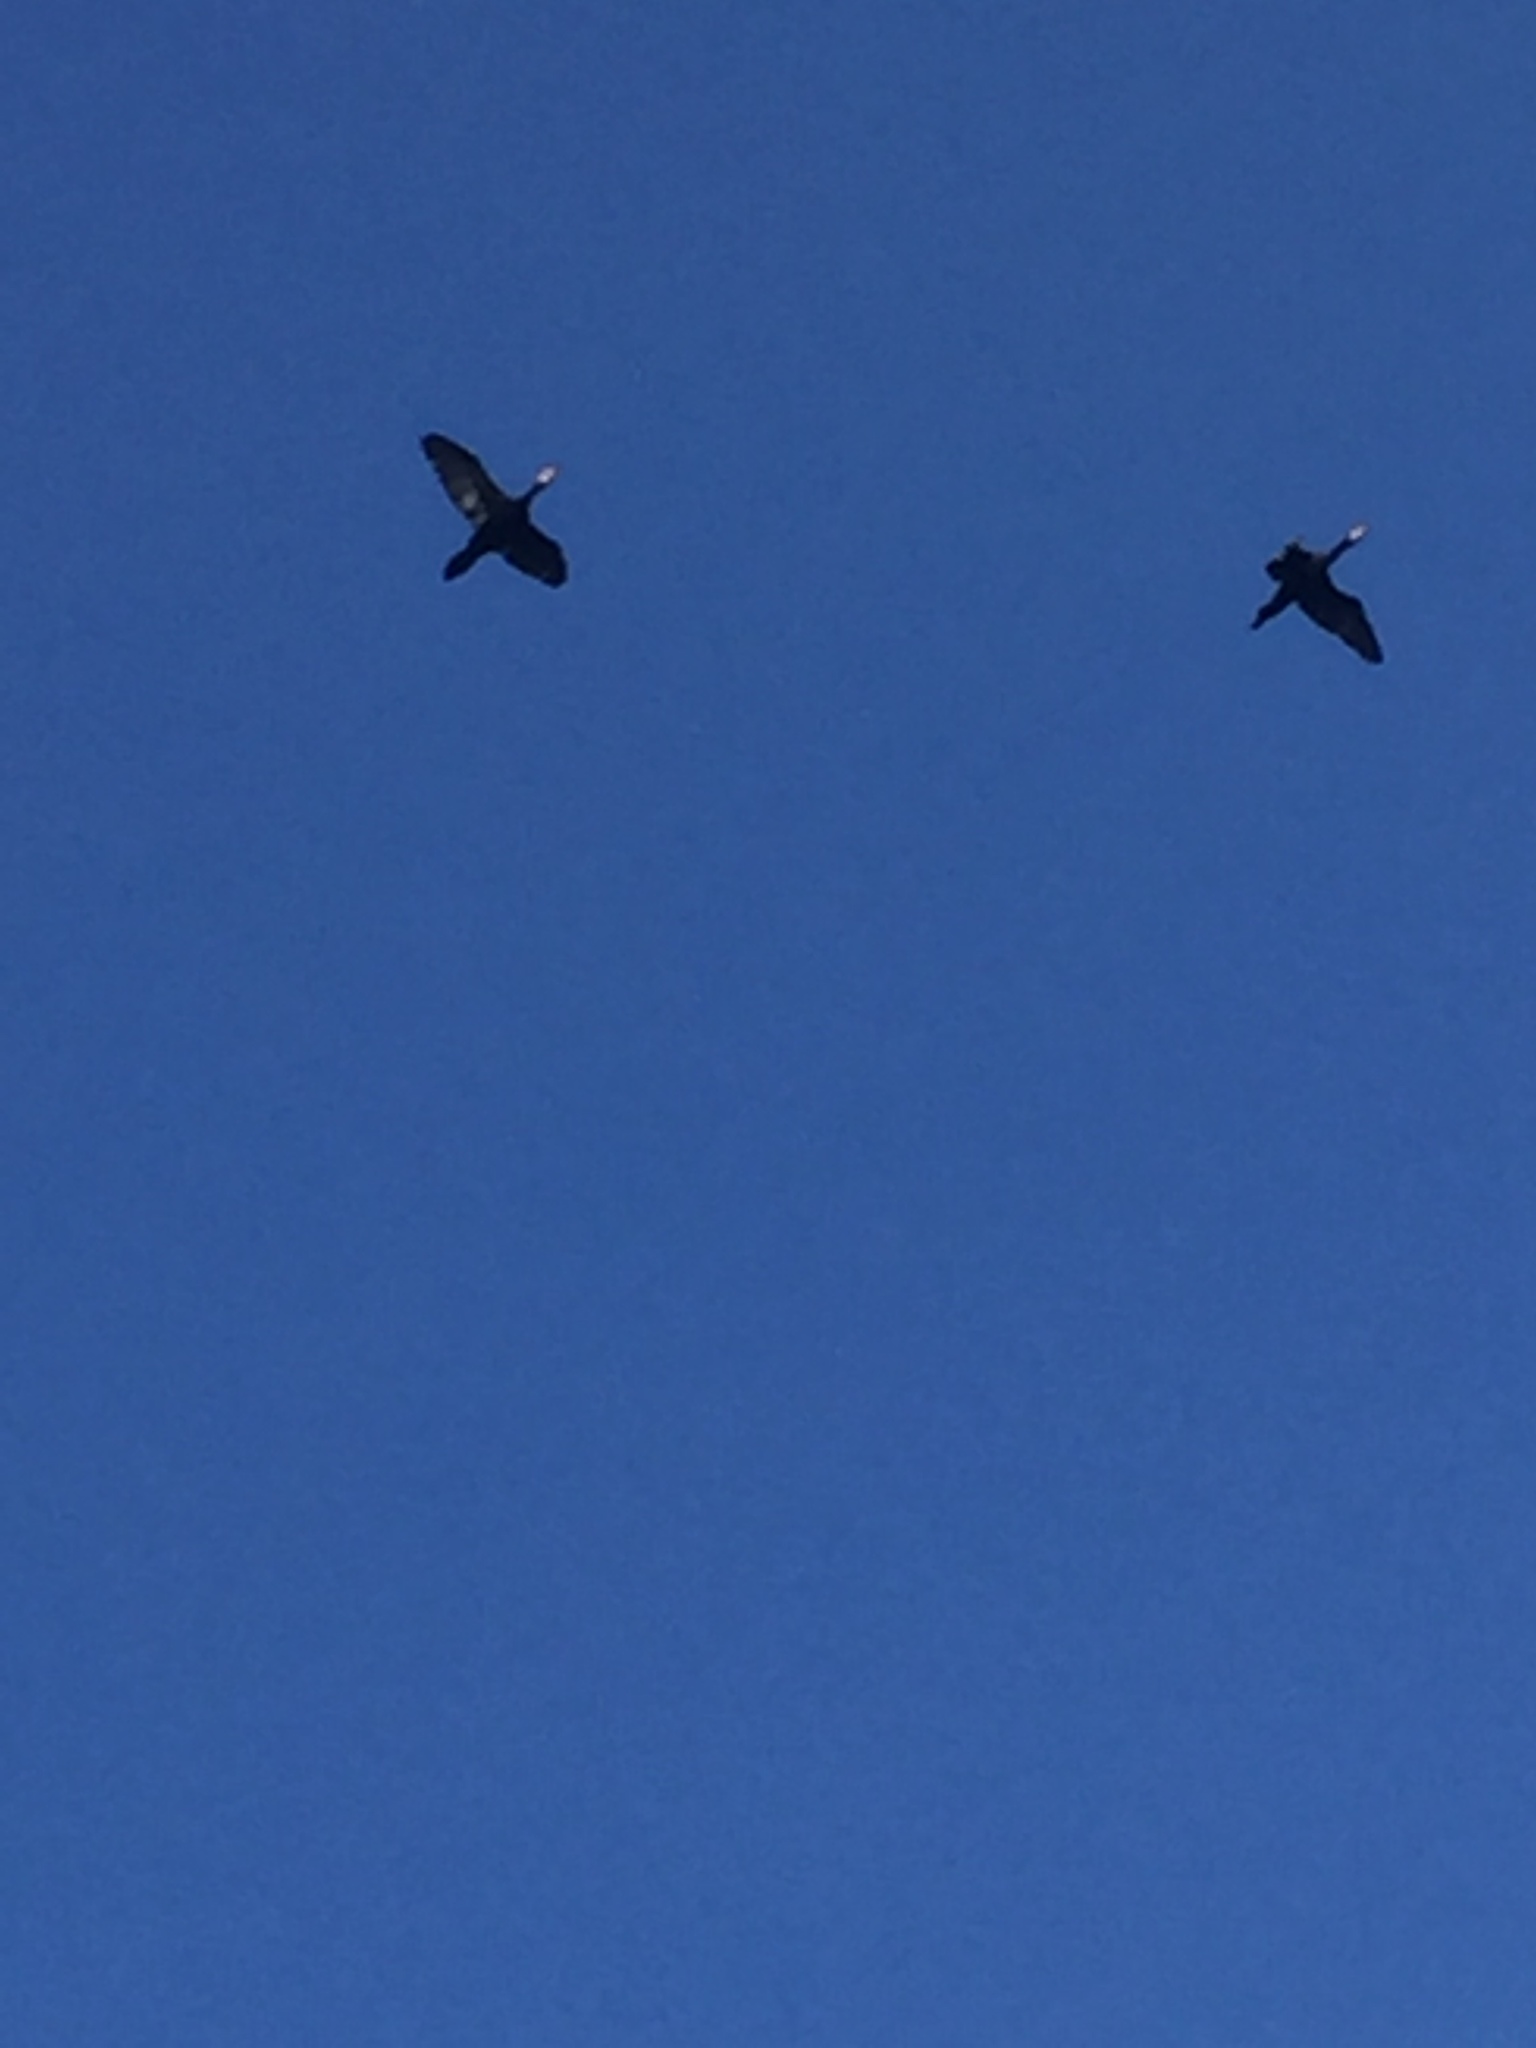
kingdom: Animalia
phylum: Chordata
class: Aves
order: Suliformes
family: Phalacrocoracidae
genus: Phalacrocorax
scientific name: Phalacrocorax carbo
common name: Great cormorant
